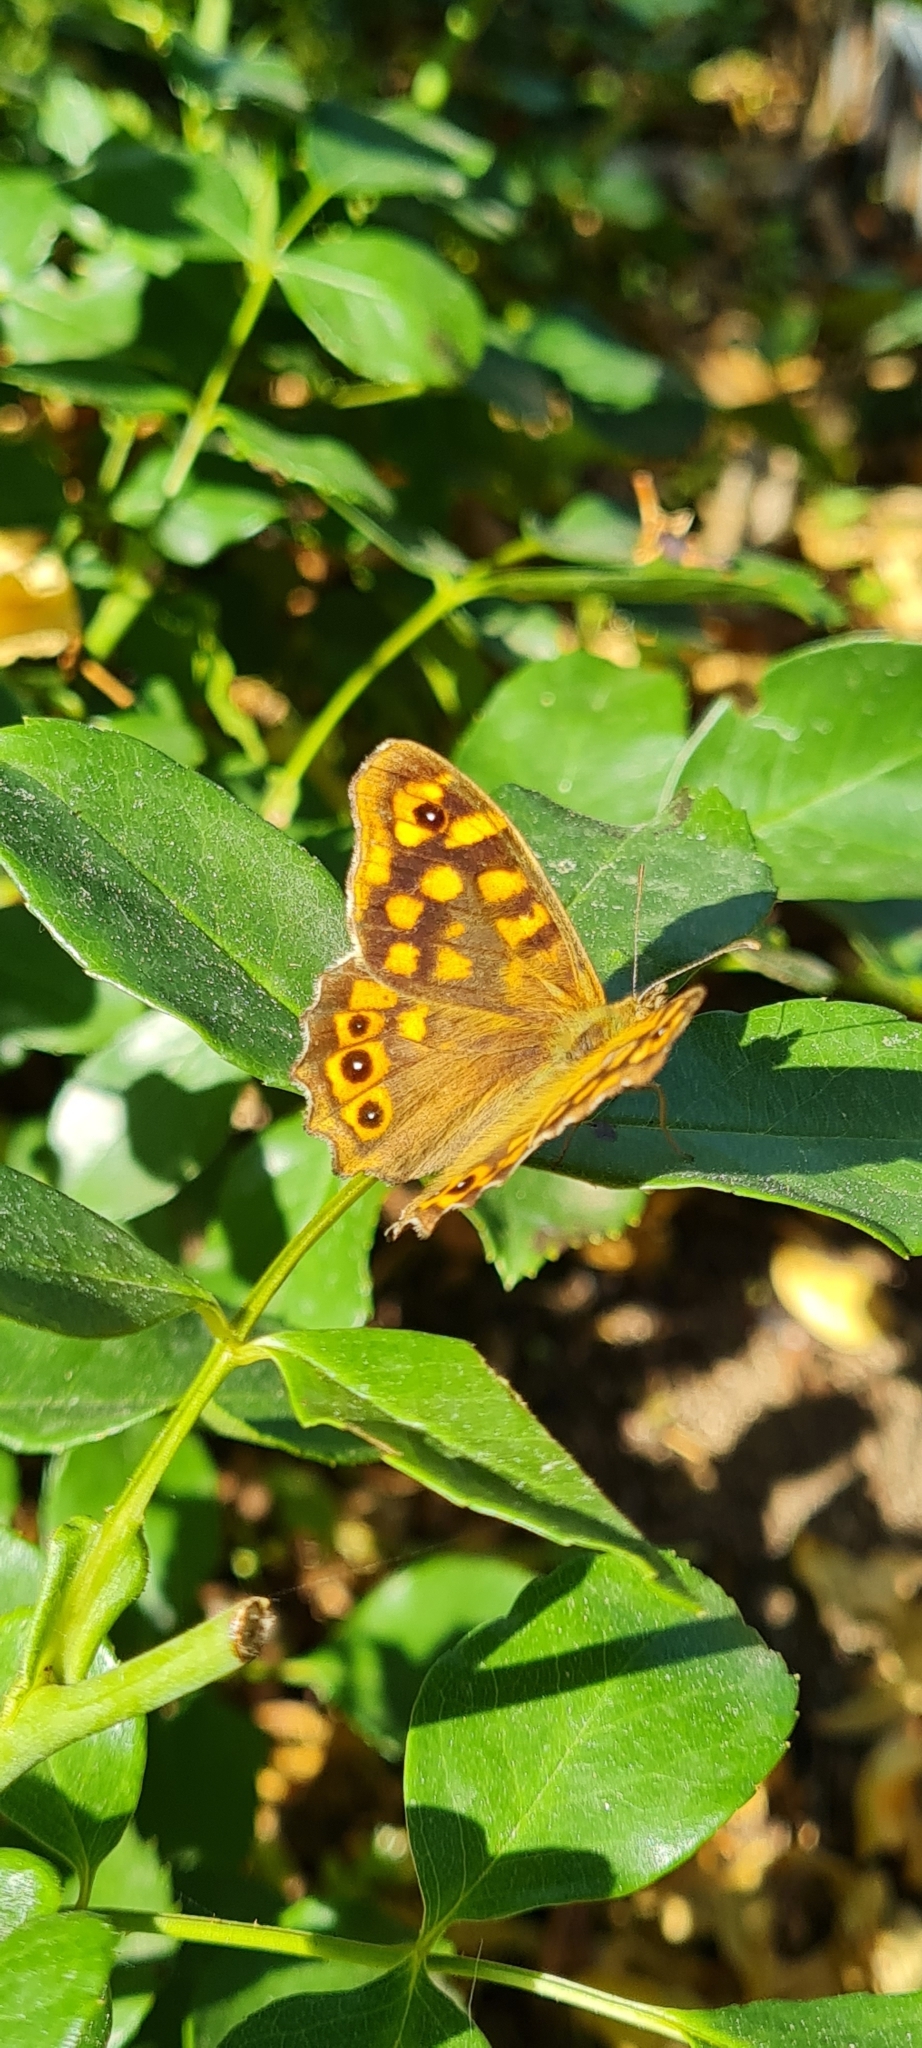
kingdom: Animalia
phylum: Arthropoda
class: Insecta
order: Lepidoptera
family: Nymphalidae
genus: Pararge
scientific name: Pararge aegeria
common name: Speckled wood
